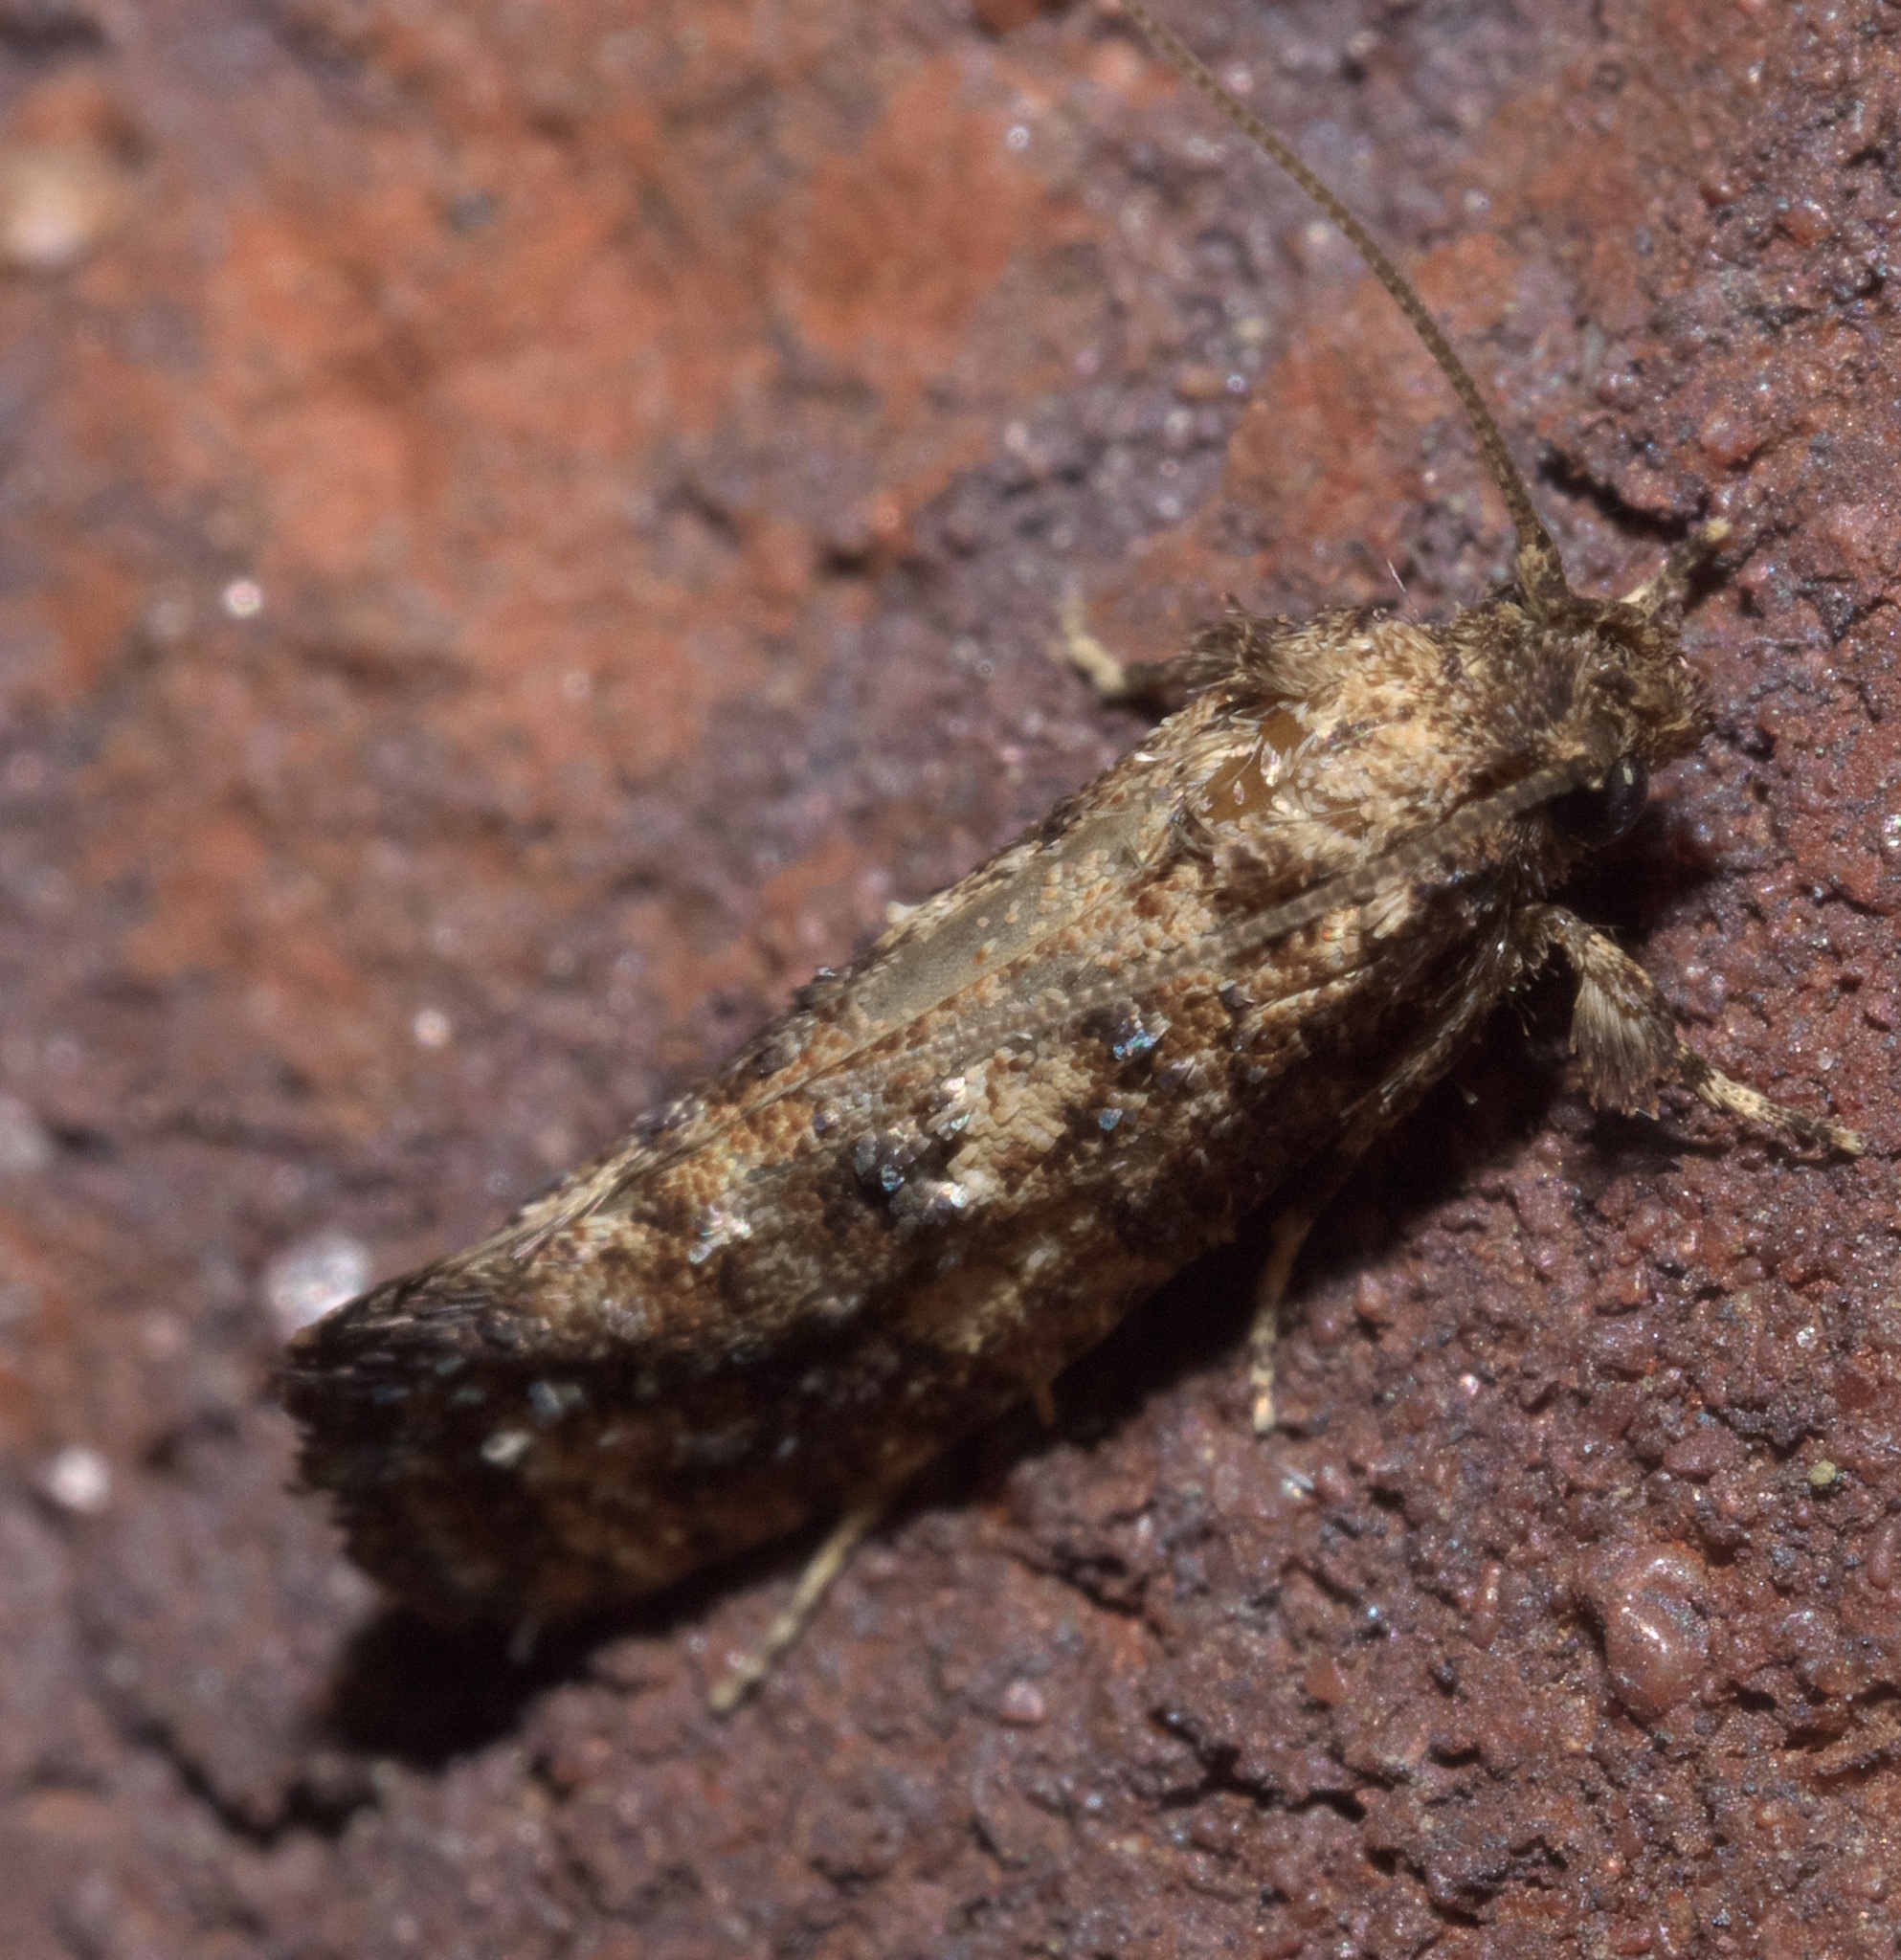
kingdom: Animalia
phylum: Arthropoda
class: Insecta
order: Lepidoptera
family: Tineidae
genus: Acrolophus
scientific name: Acrolophus cressoni
